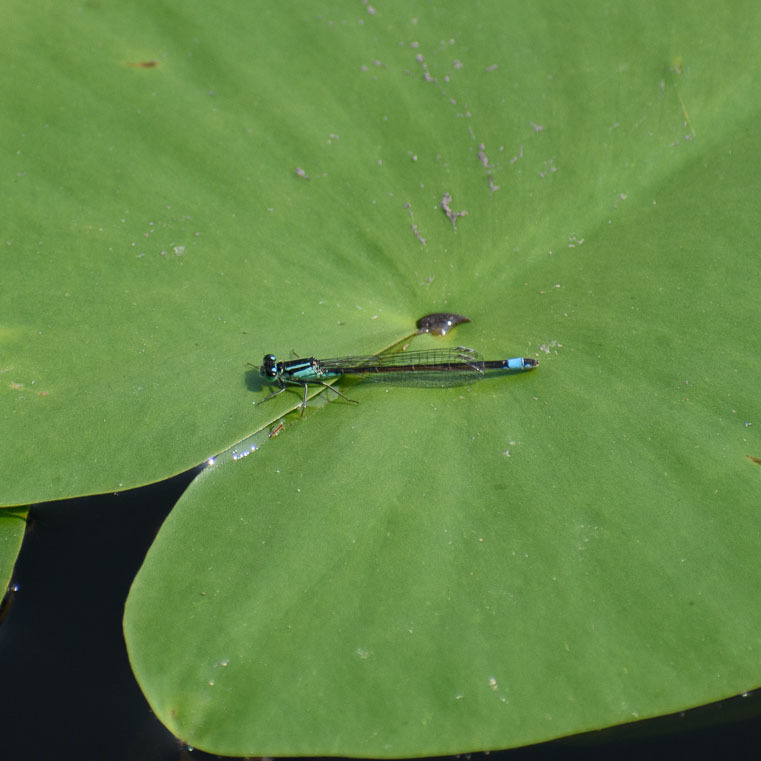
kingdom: Animalia
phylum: Arthropoda
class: Insecta
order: Odonata
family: Coenagrionidae
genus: Ischnura
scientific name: Ischnura elegans
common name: Blue-tailed damselfly
